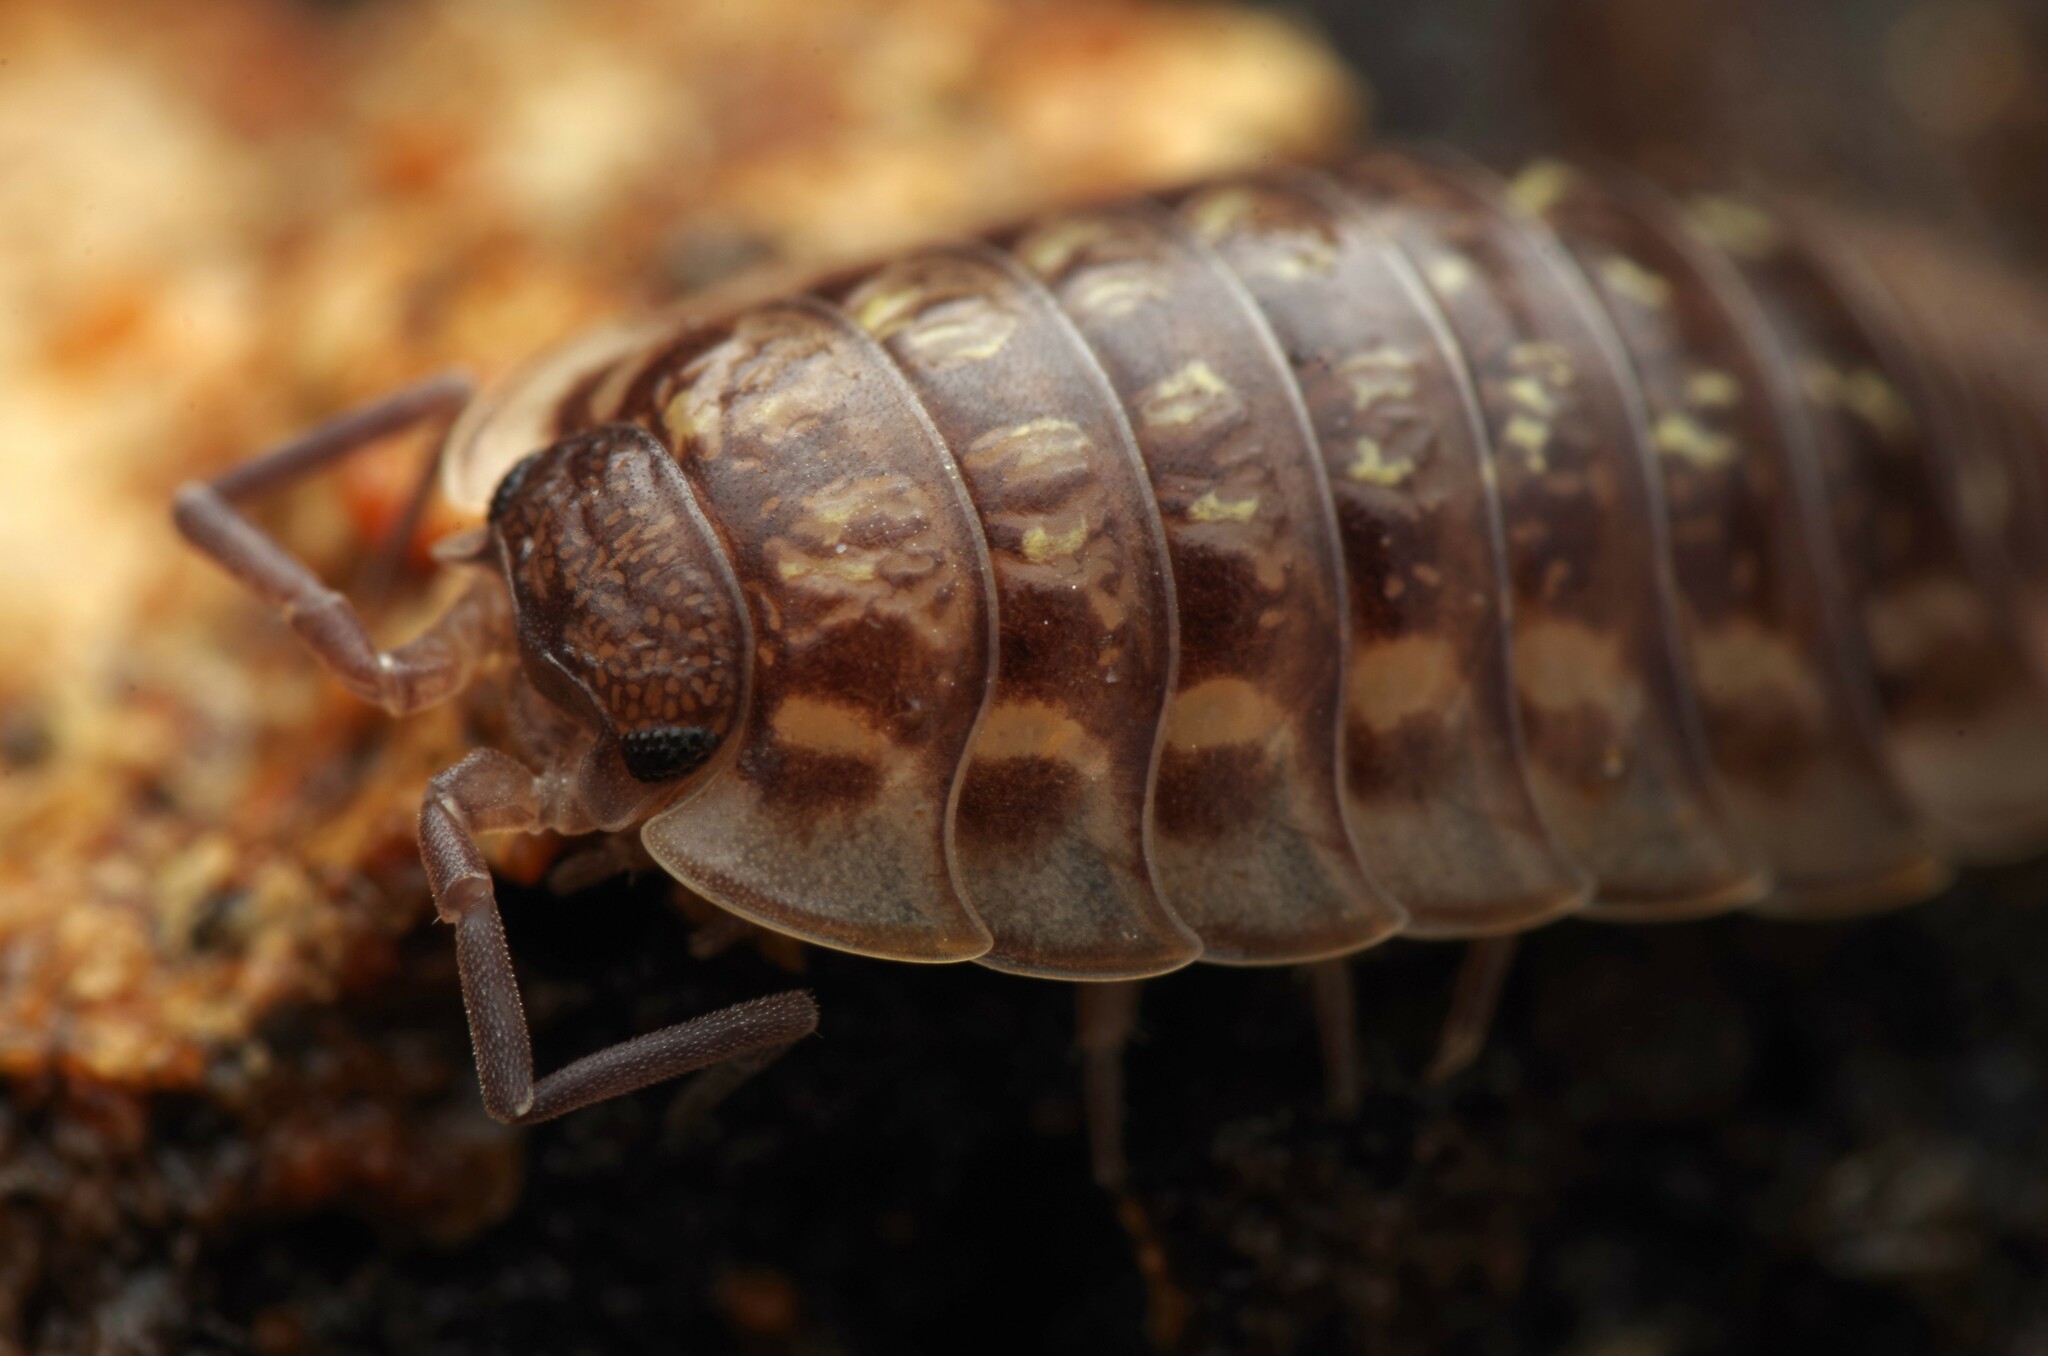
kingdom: Animalia
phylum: Arthropoda
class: Malacostraca
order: Isopoda
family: Oniscidae
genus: Oniscus
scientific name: Oniscus asellus
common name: Common shiny woodlouse
